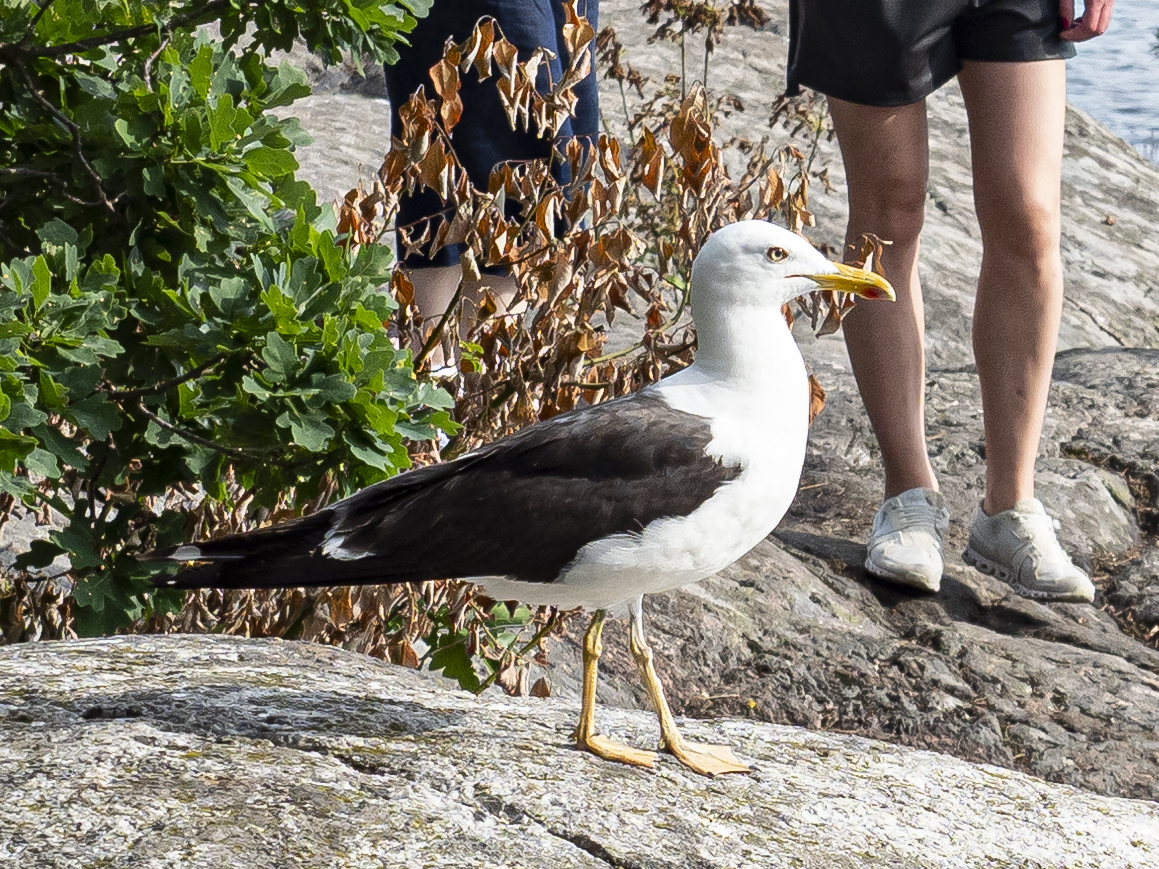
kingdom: Animalia
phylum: Chordata
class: Aves
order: Charadriiformes
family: Laridae
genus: Larus
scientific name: Larus fuscus
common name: Lesser black-backed gull
